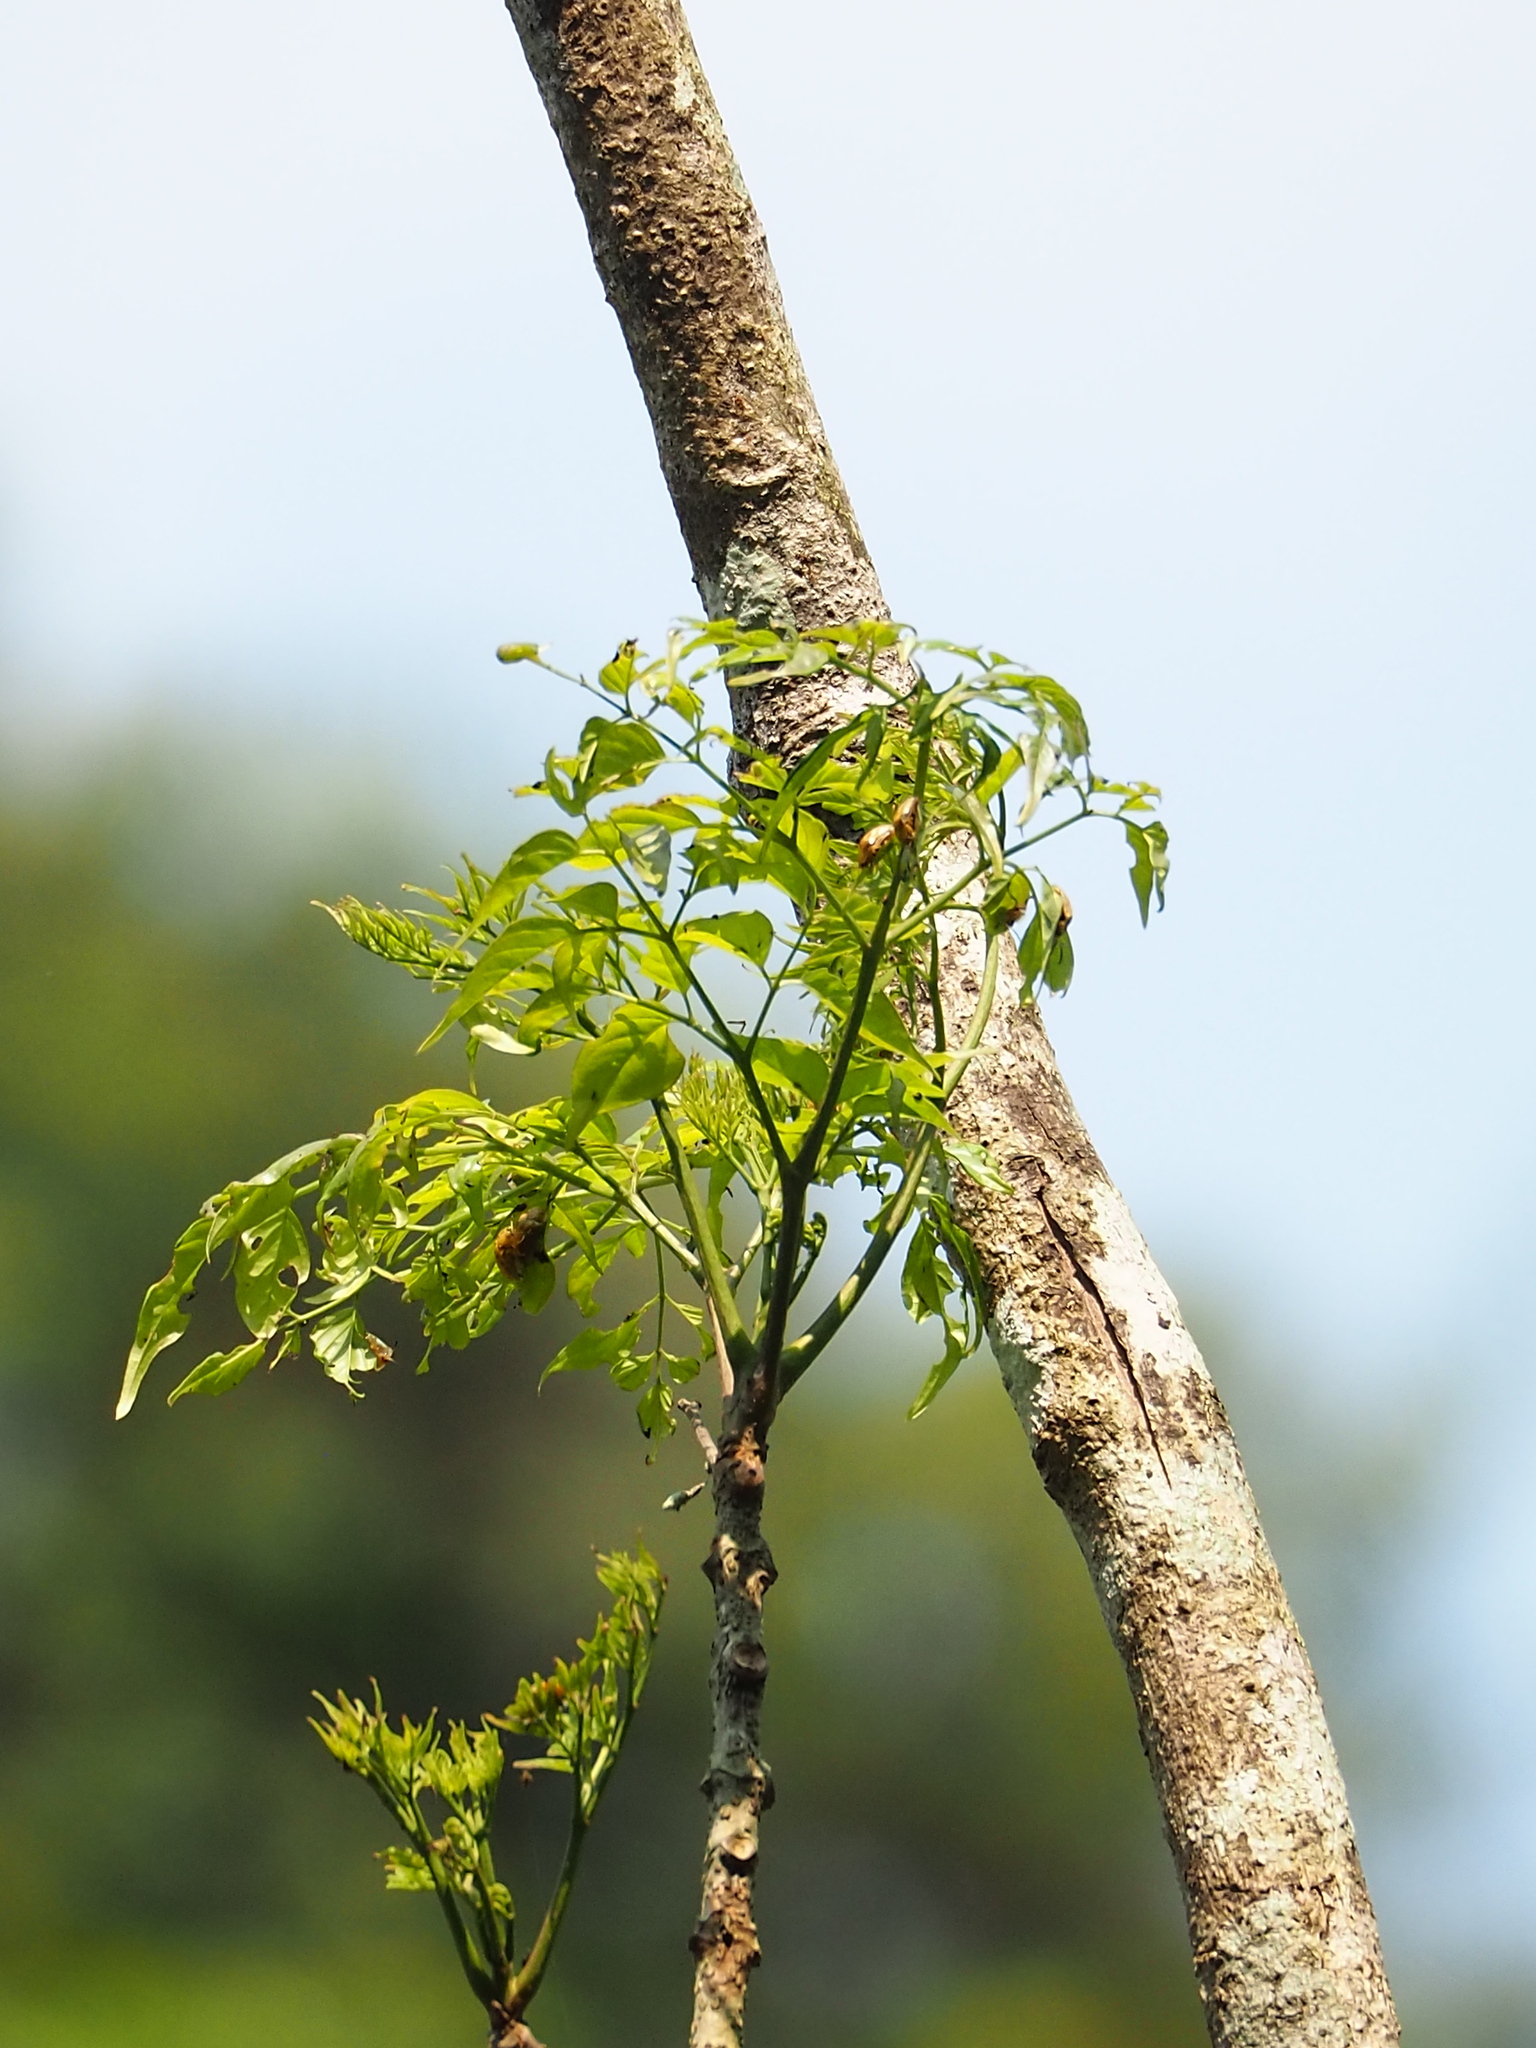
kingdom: Plantae
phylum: Tracheophyta
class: Magnoliopsida
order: Lamiales
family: Bignoniaceae
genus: Radermachera
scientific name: Radermachera sinica
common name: China doll plant
